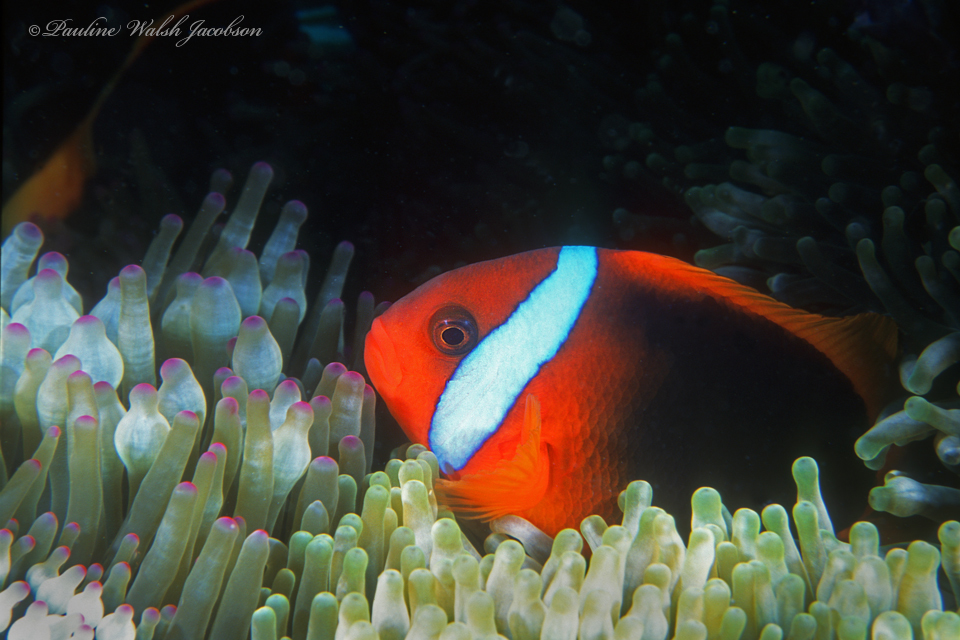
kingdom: Animalia
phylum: Chordata
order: Perciformes
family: Pomacentridae
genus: Amphiprion
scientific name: Amphiprion melanopus
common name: Black anemonefish
